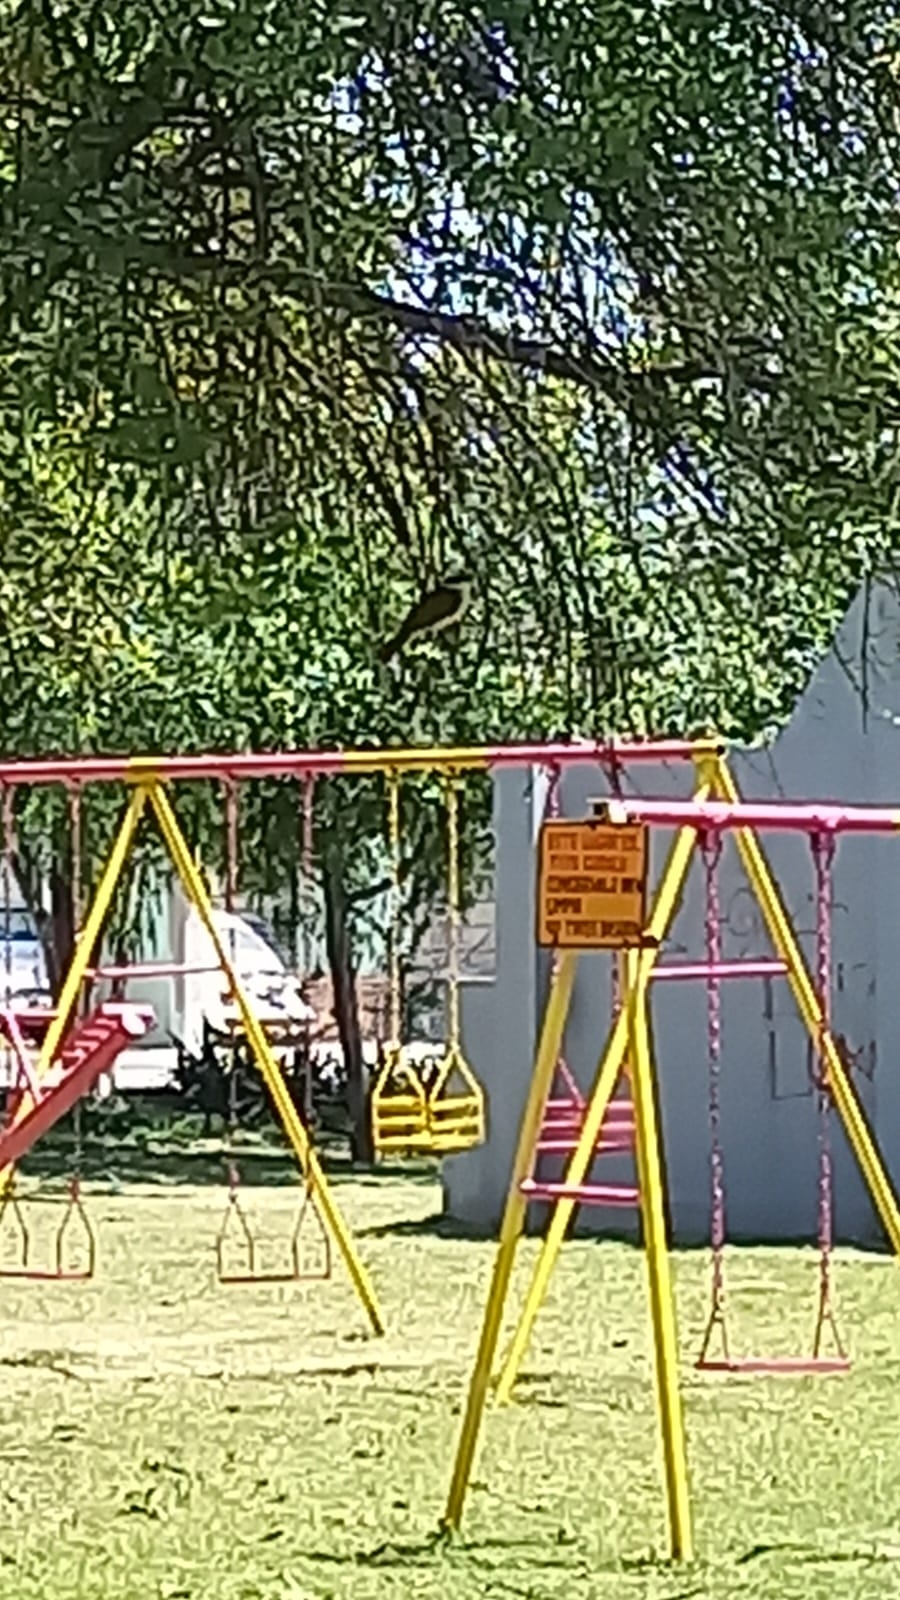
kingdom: Animalia
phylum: Chordata
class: Aves
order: Passeriformes
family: Tyrannidae
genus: Pitangus
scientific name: Pitangus sulphuratus
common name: Great kiskadee
